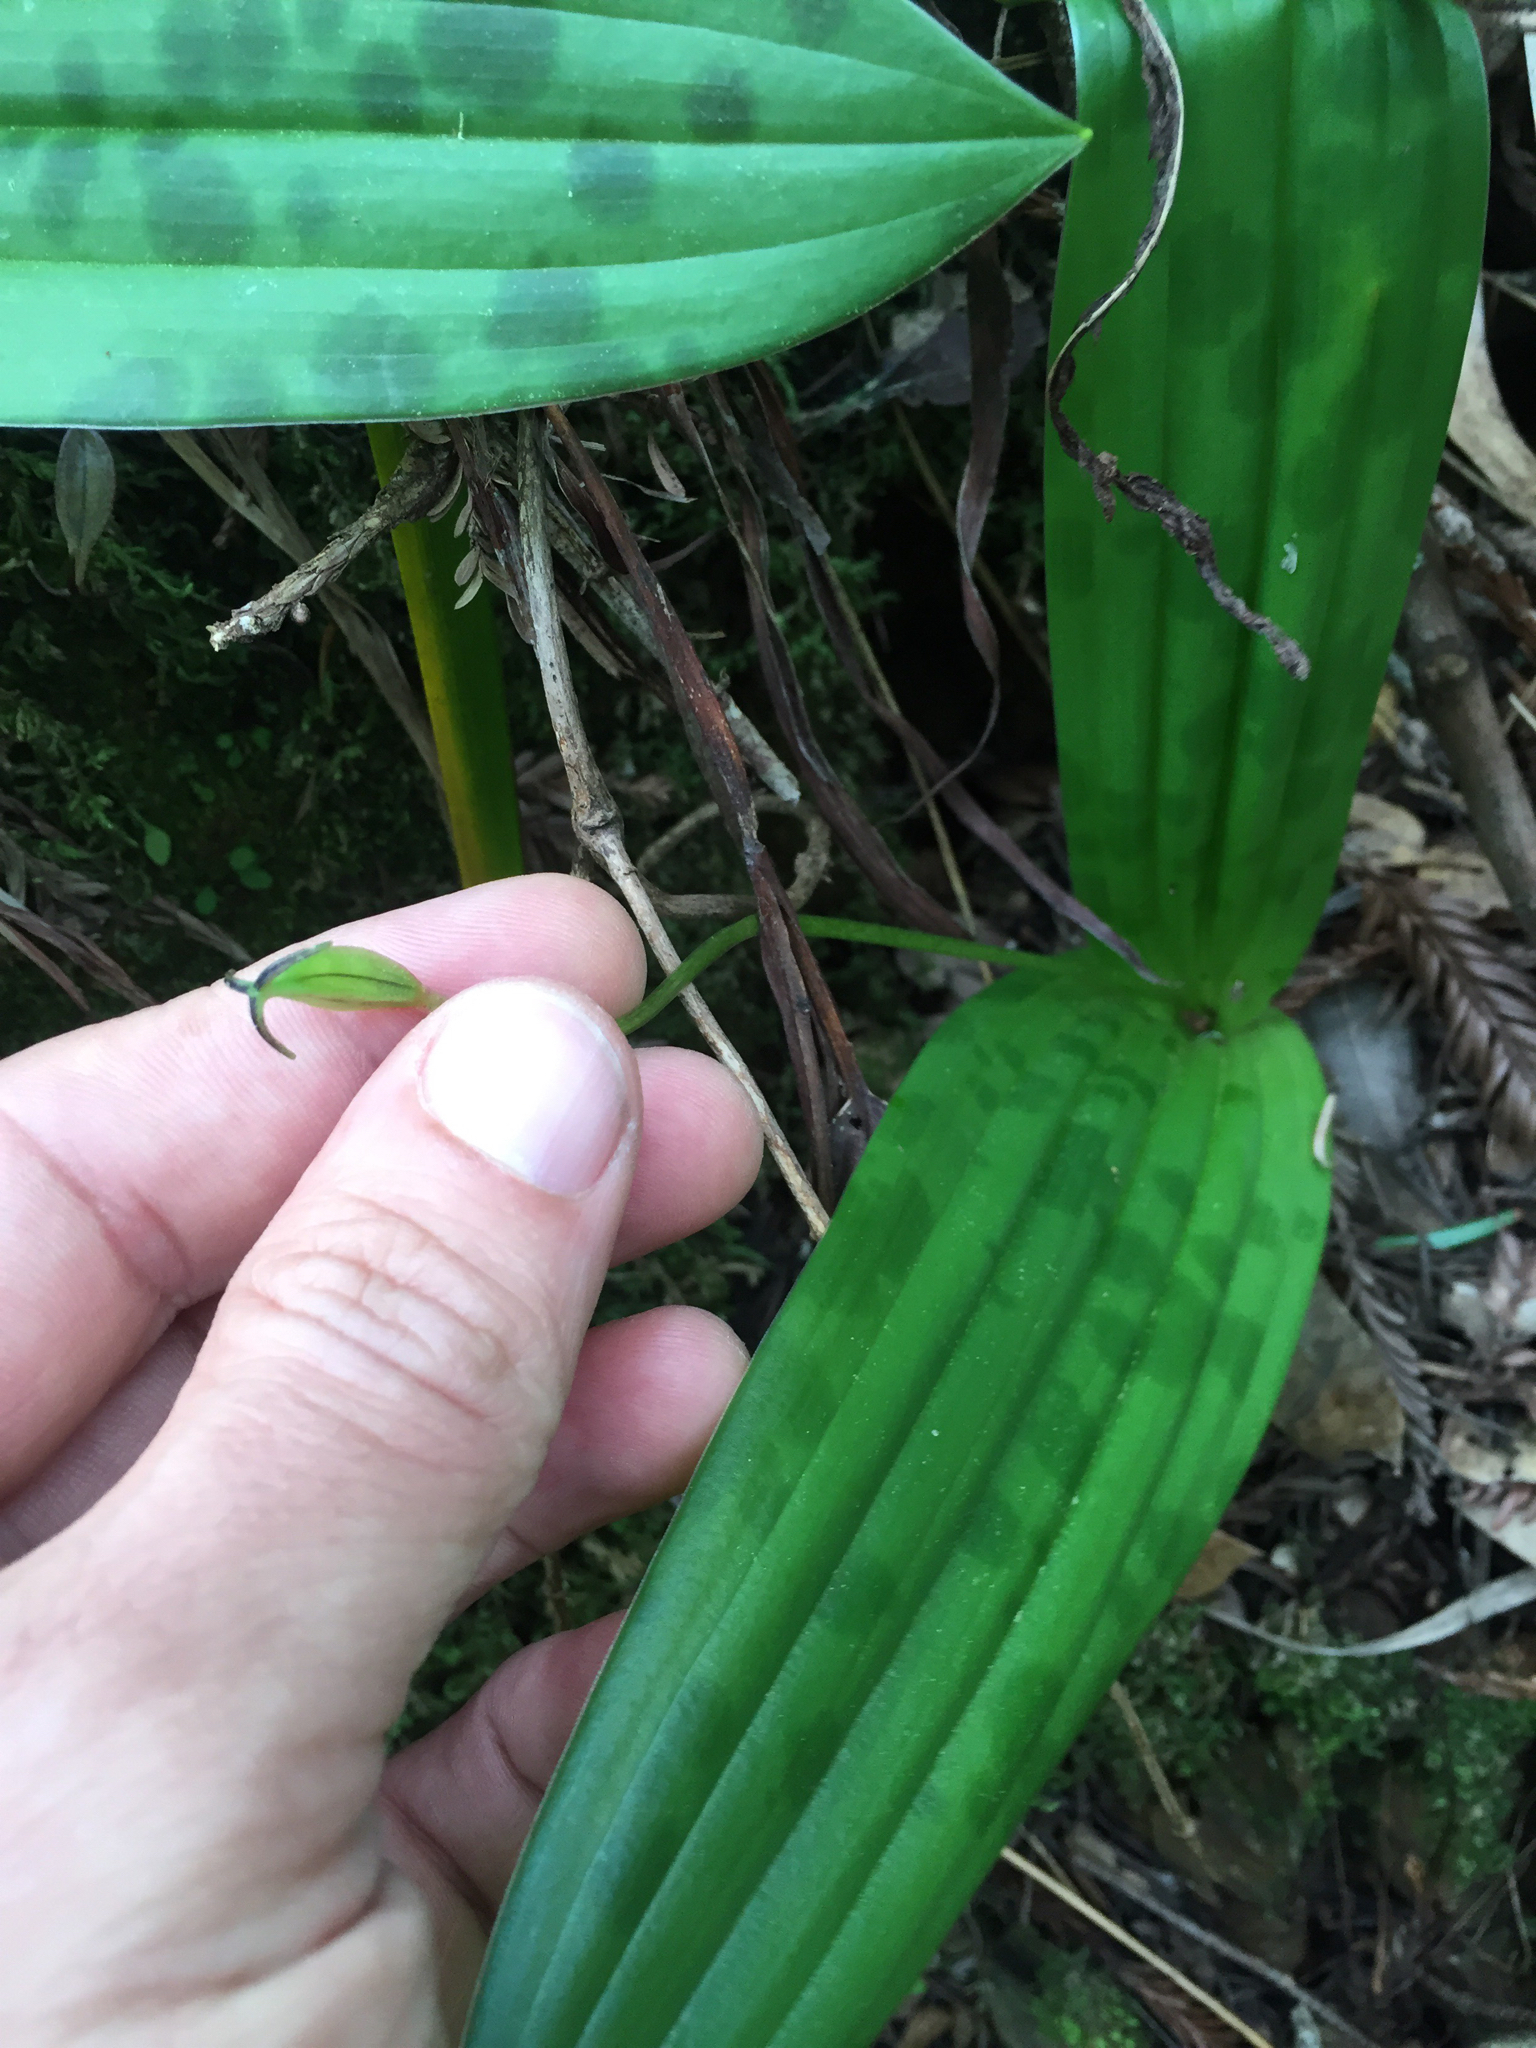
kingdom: Plantae
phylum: Tracheophyta
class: Liliopsida
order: Liliales
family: Liliaceae
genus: Scoliopus
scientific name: Scoliopus bigelovii
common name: Foetid adder's-tongue
